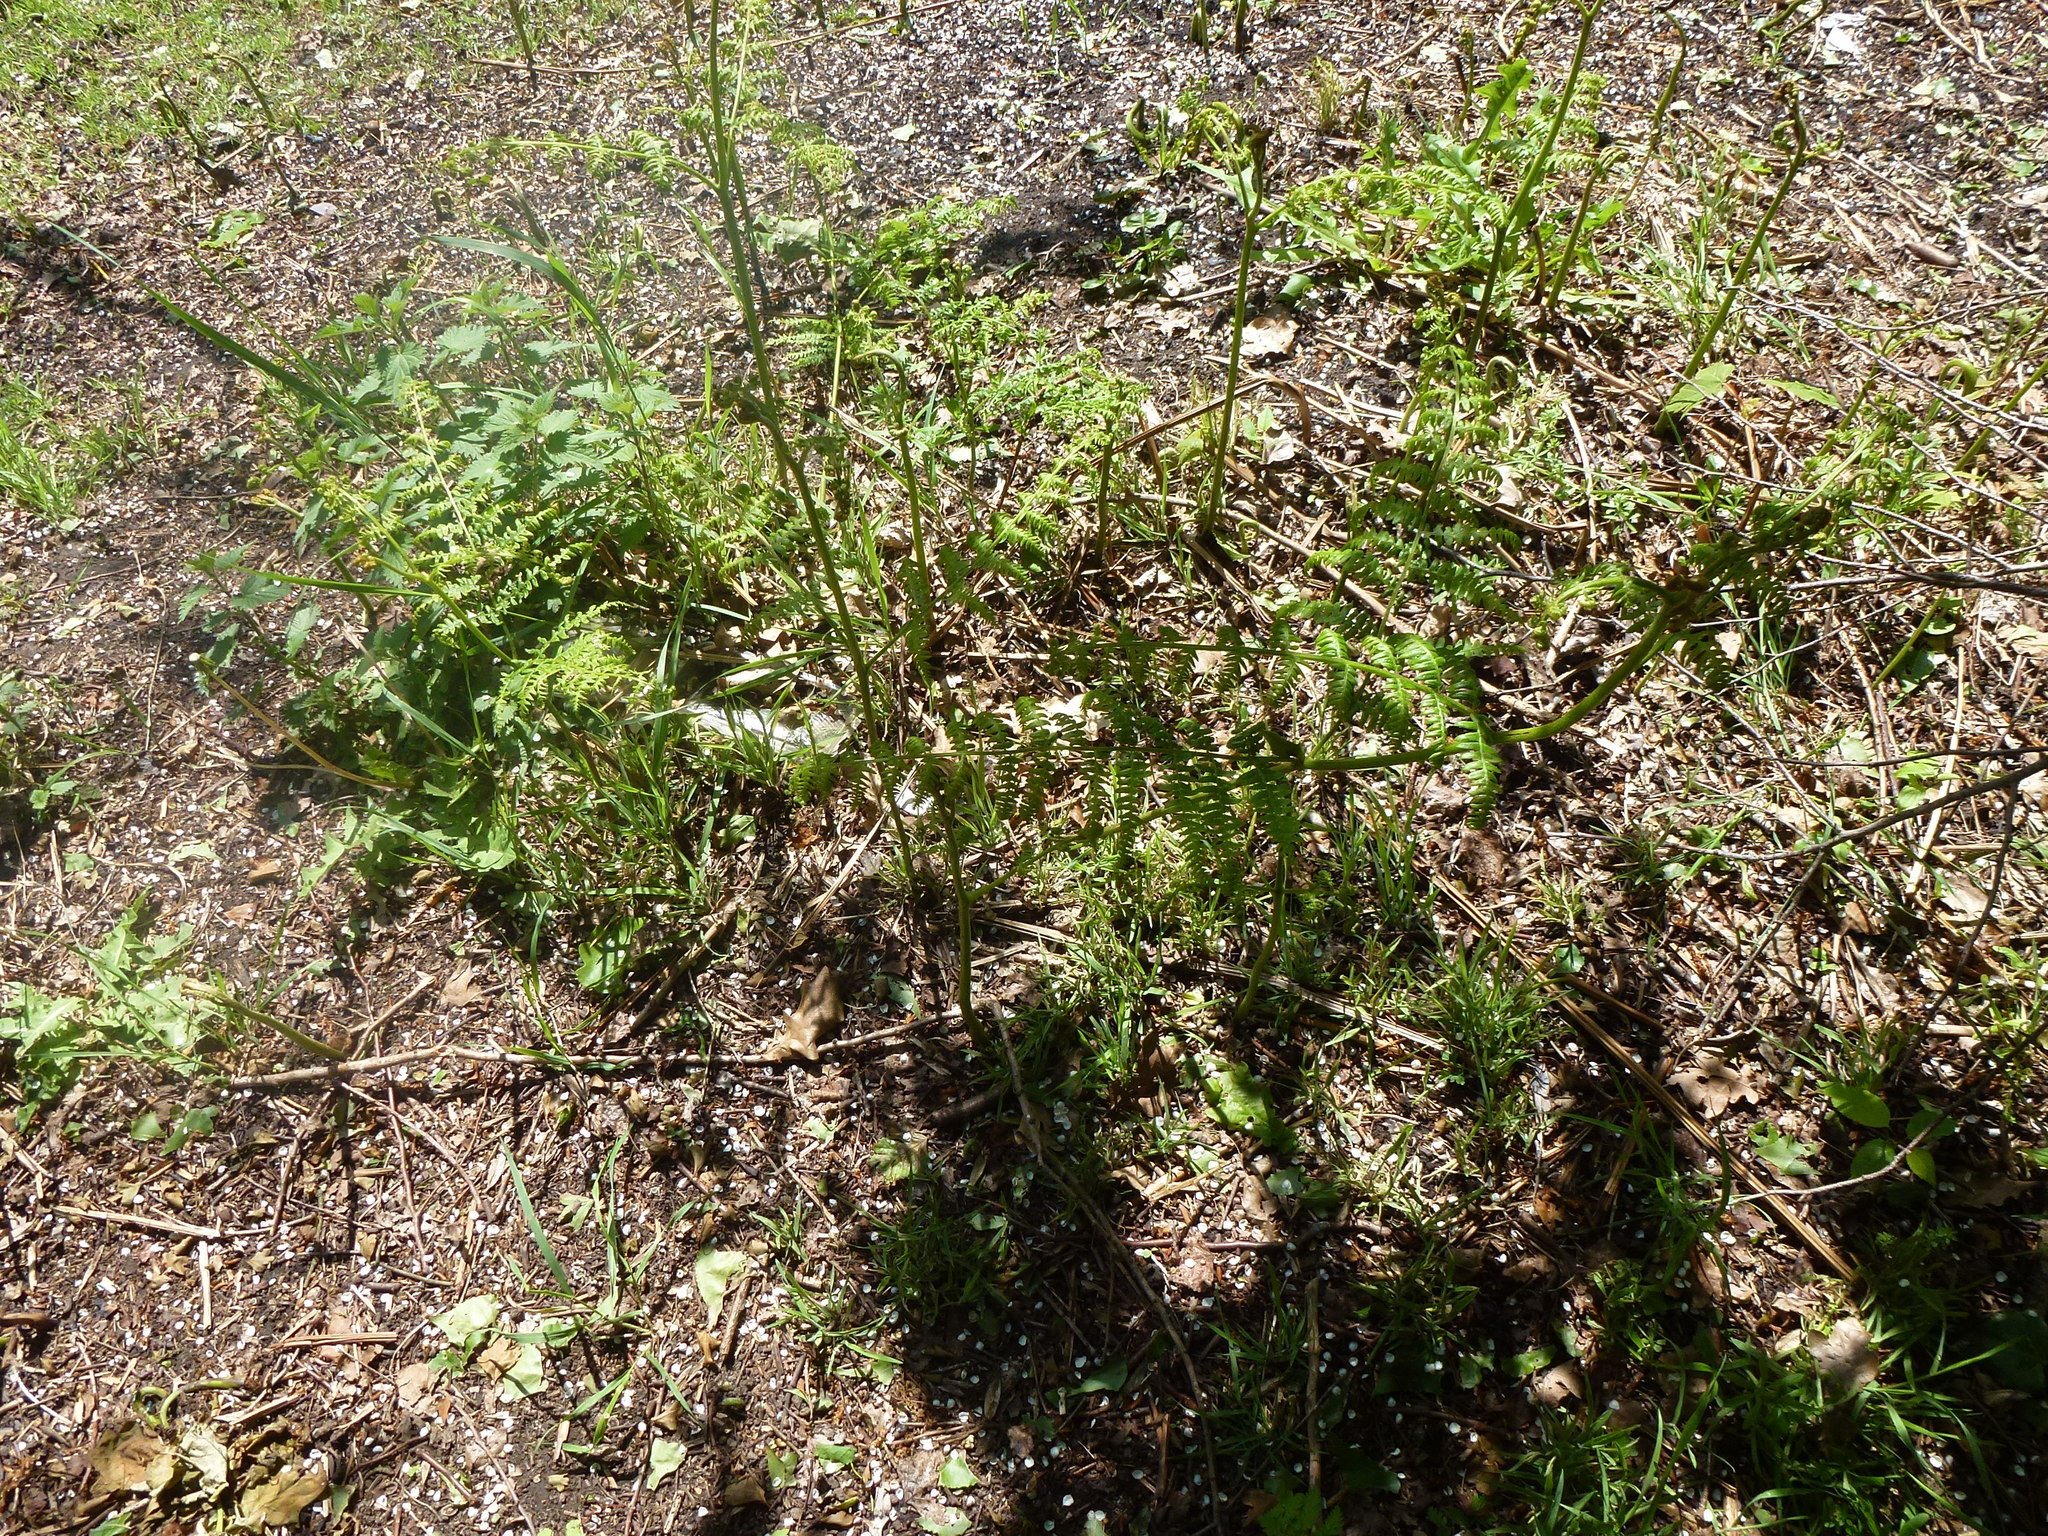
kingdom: Plantae
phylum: Tracheophyta
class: Polypodiopsida
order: Polypodiales
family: Dennstaedtiaceae
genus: Pteridium
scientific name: Pteridium aquilinum
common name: Bracken
